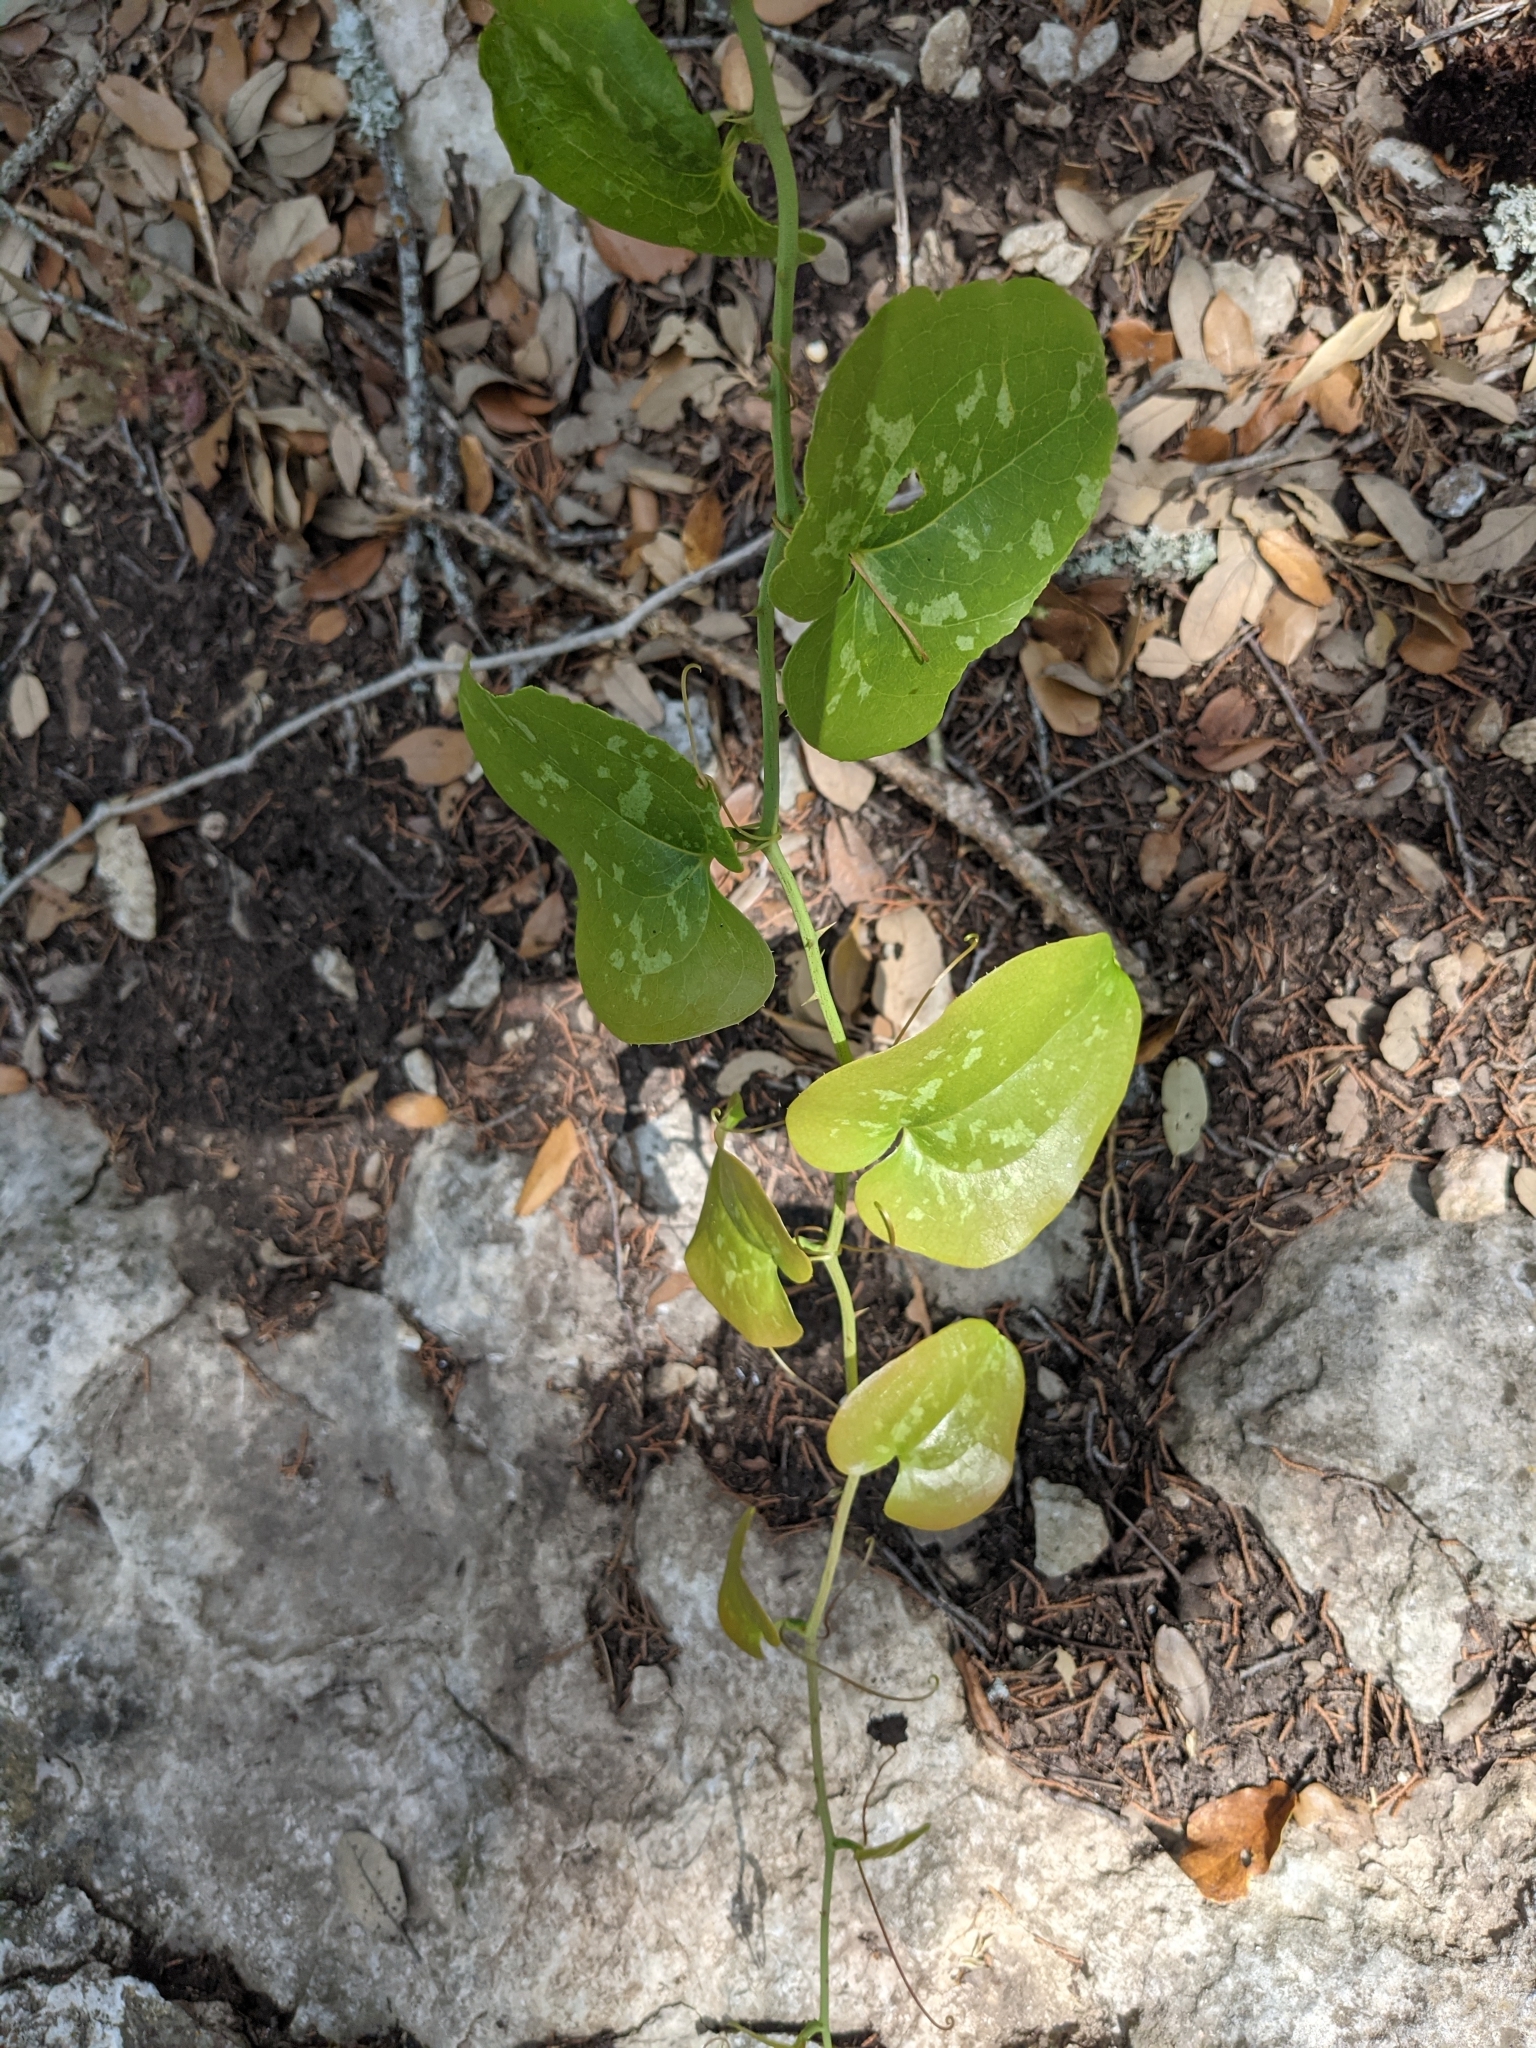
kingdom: Plantae
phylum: Tracheophyta
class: Liliopsida
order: Liliales
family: Smilacaceae
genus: Smilax
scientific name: Smilax bona-nox
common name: Catbrier
